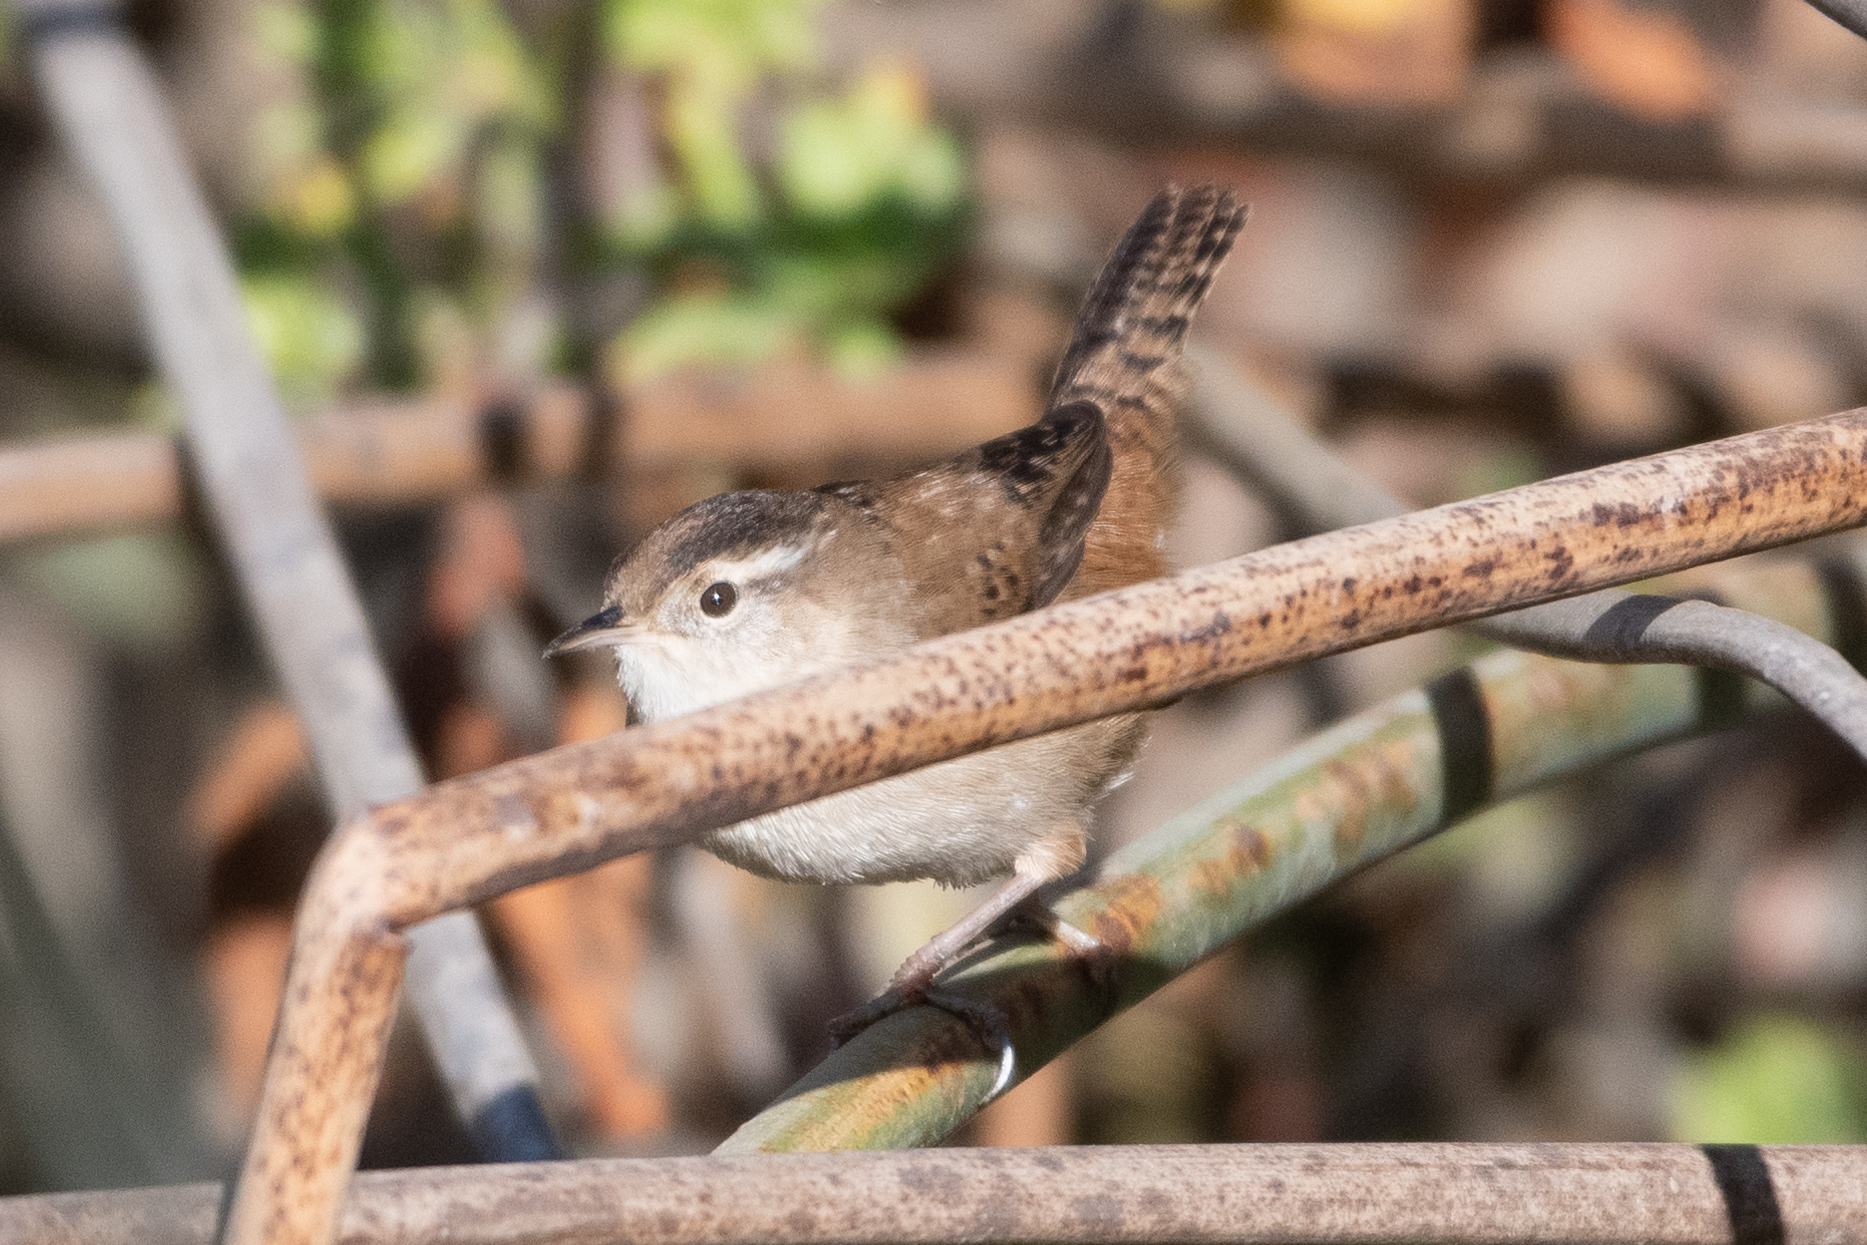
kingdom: Animalia
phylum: Chordata
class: Aves
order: Passeriformes
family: Troglodytidae
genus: Cistothorus
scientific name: Cistothorus palustris
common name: Marsh wren
